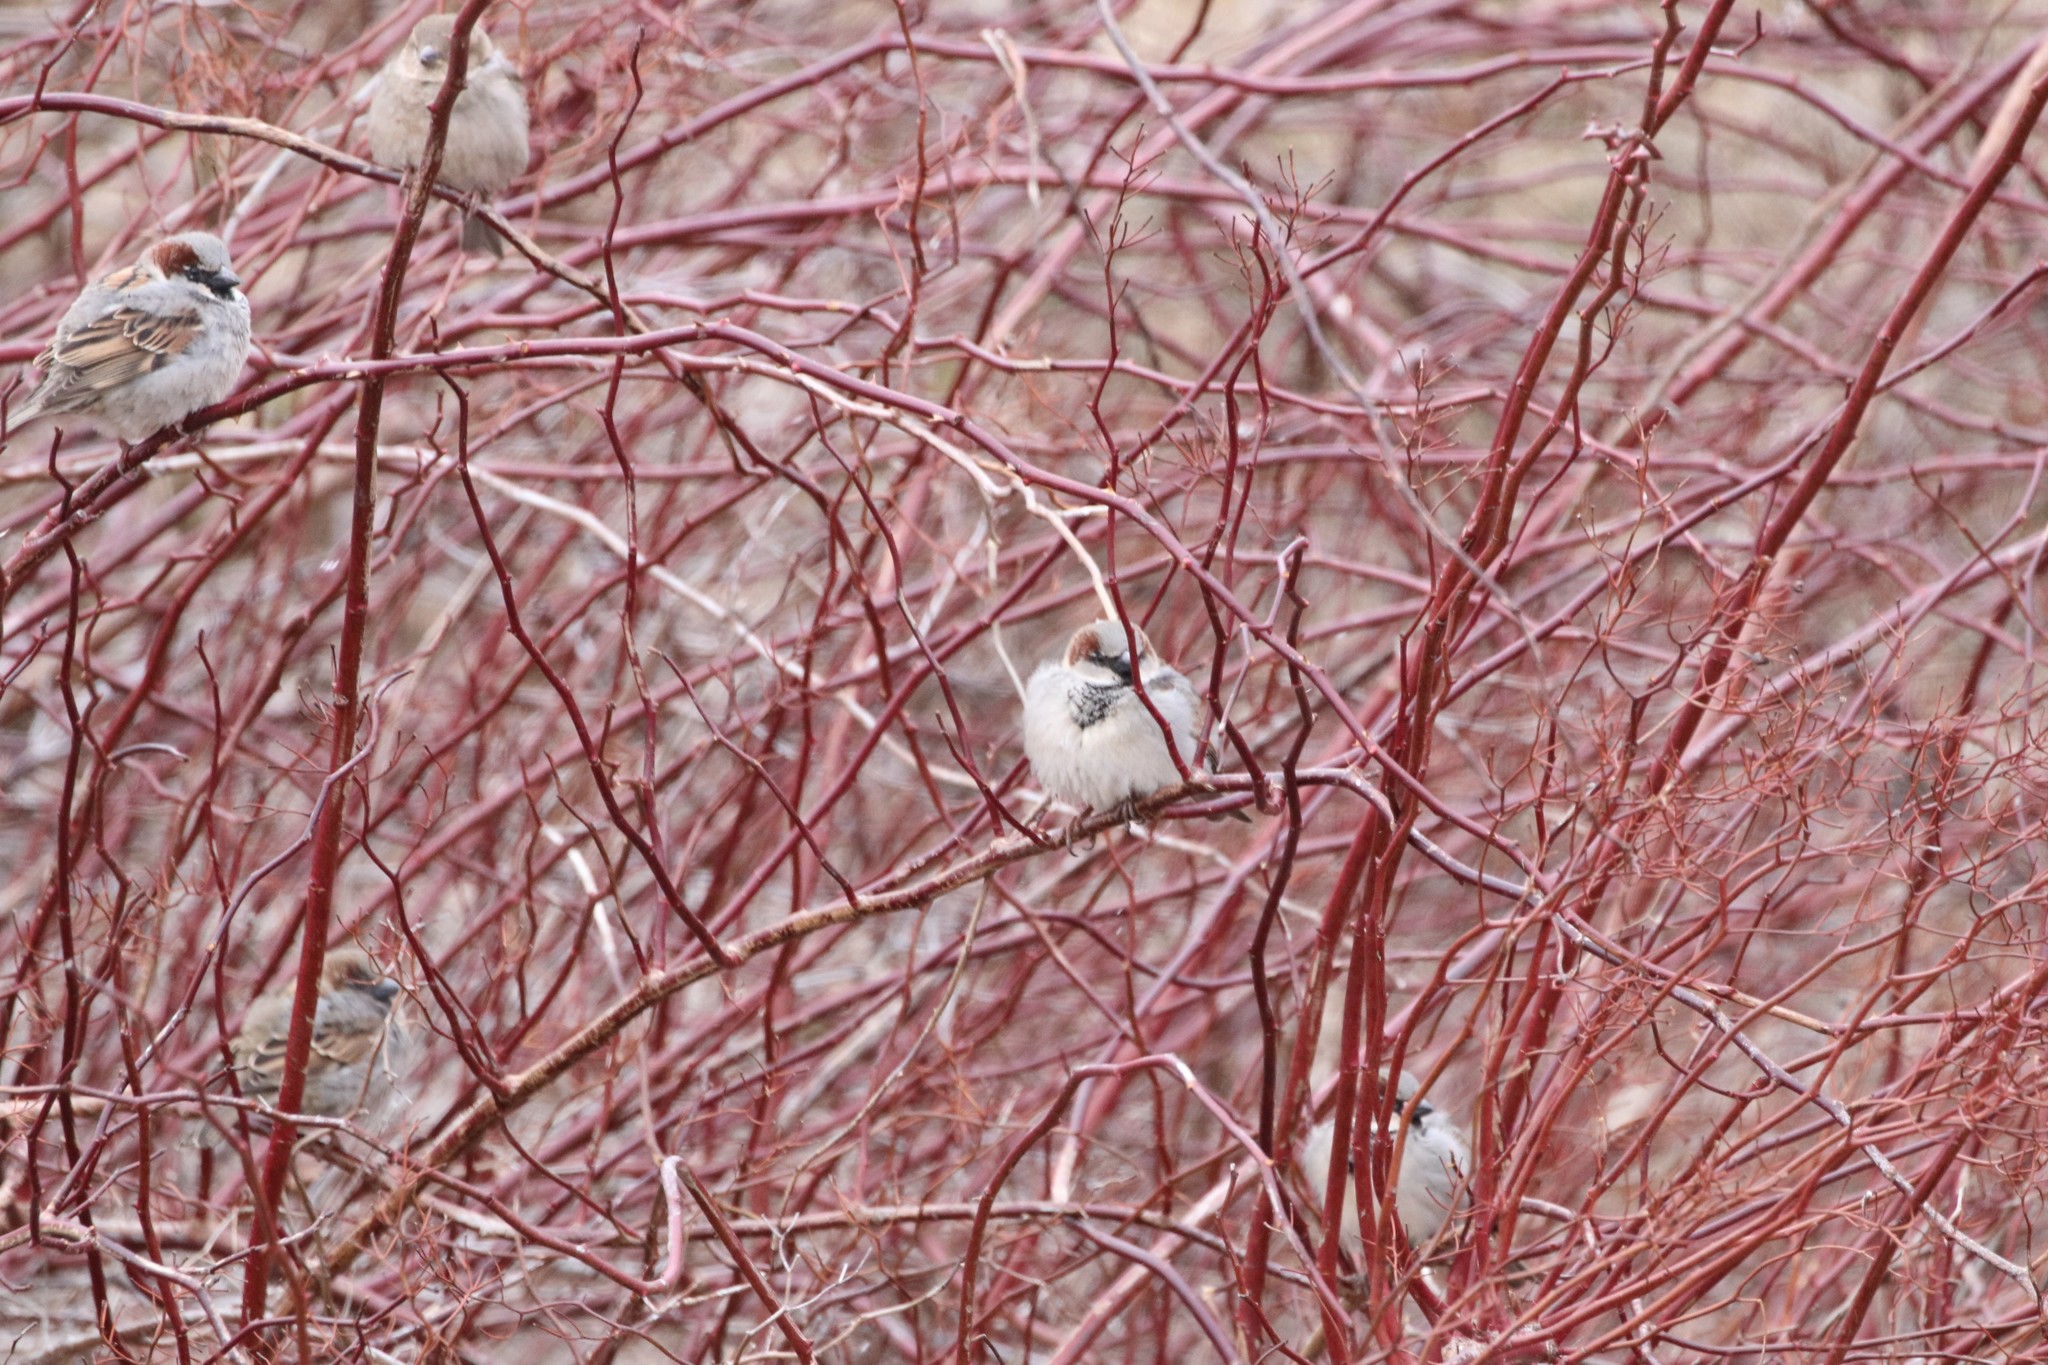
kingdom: Animalia
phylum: Chordata
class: Aves
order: Passeriformes
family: Passeridae
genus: Passer
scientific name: Passer domesticus
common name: House sparrow
